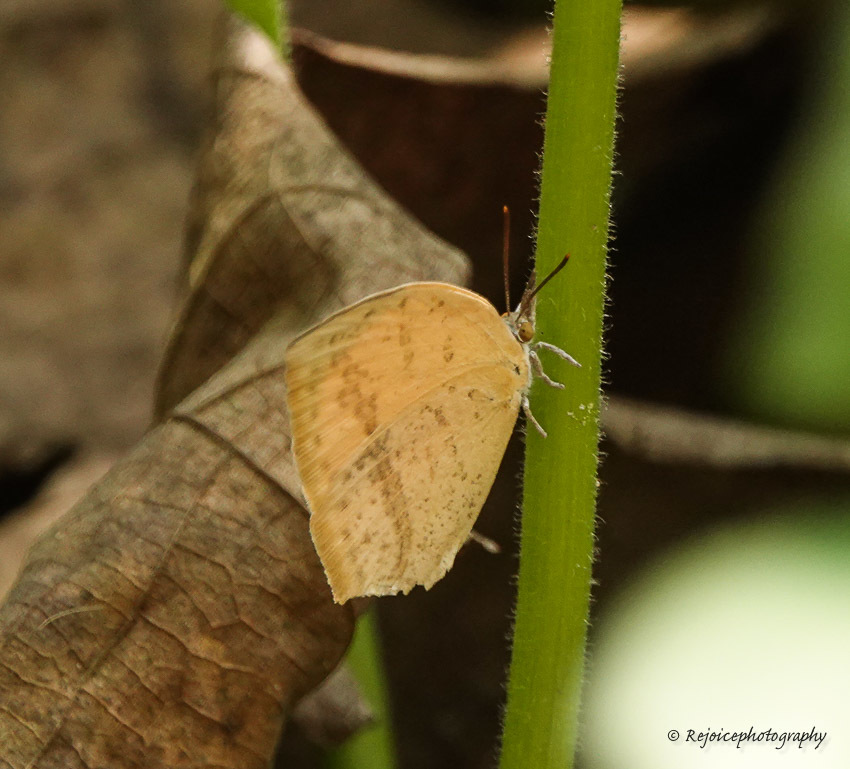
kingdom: Animalia
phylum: Arthropoda
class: Insecta
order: Lepidoptera
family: Lycaenidae
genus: Loxura
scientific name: Loxura atymnus
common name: Common yamfly
